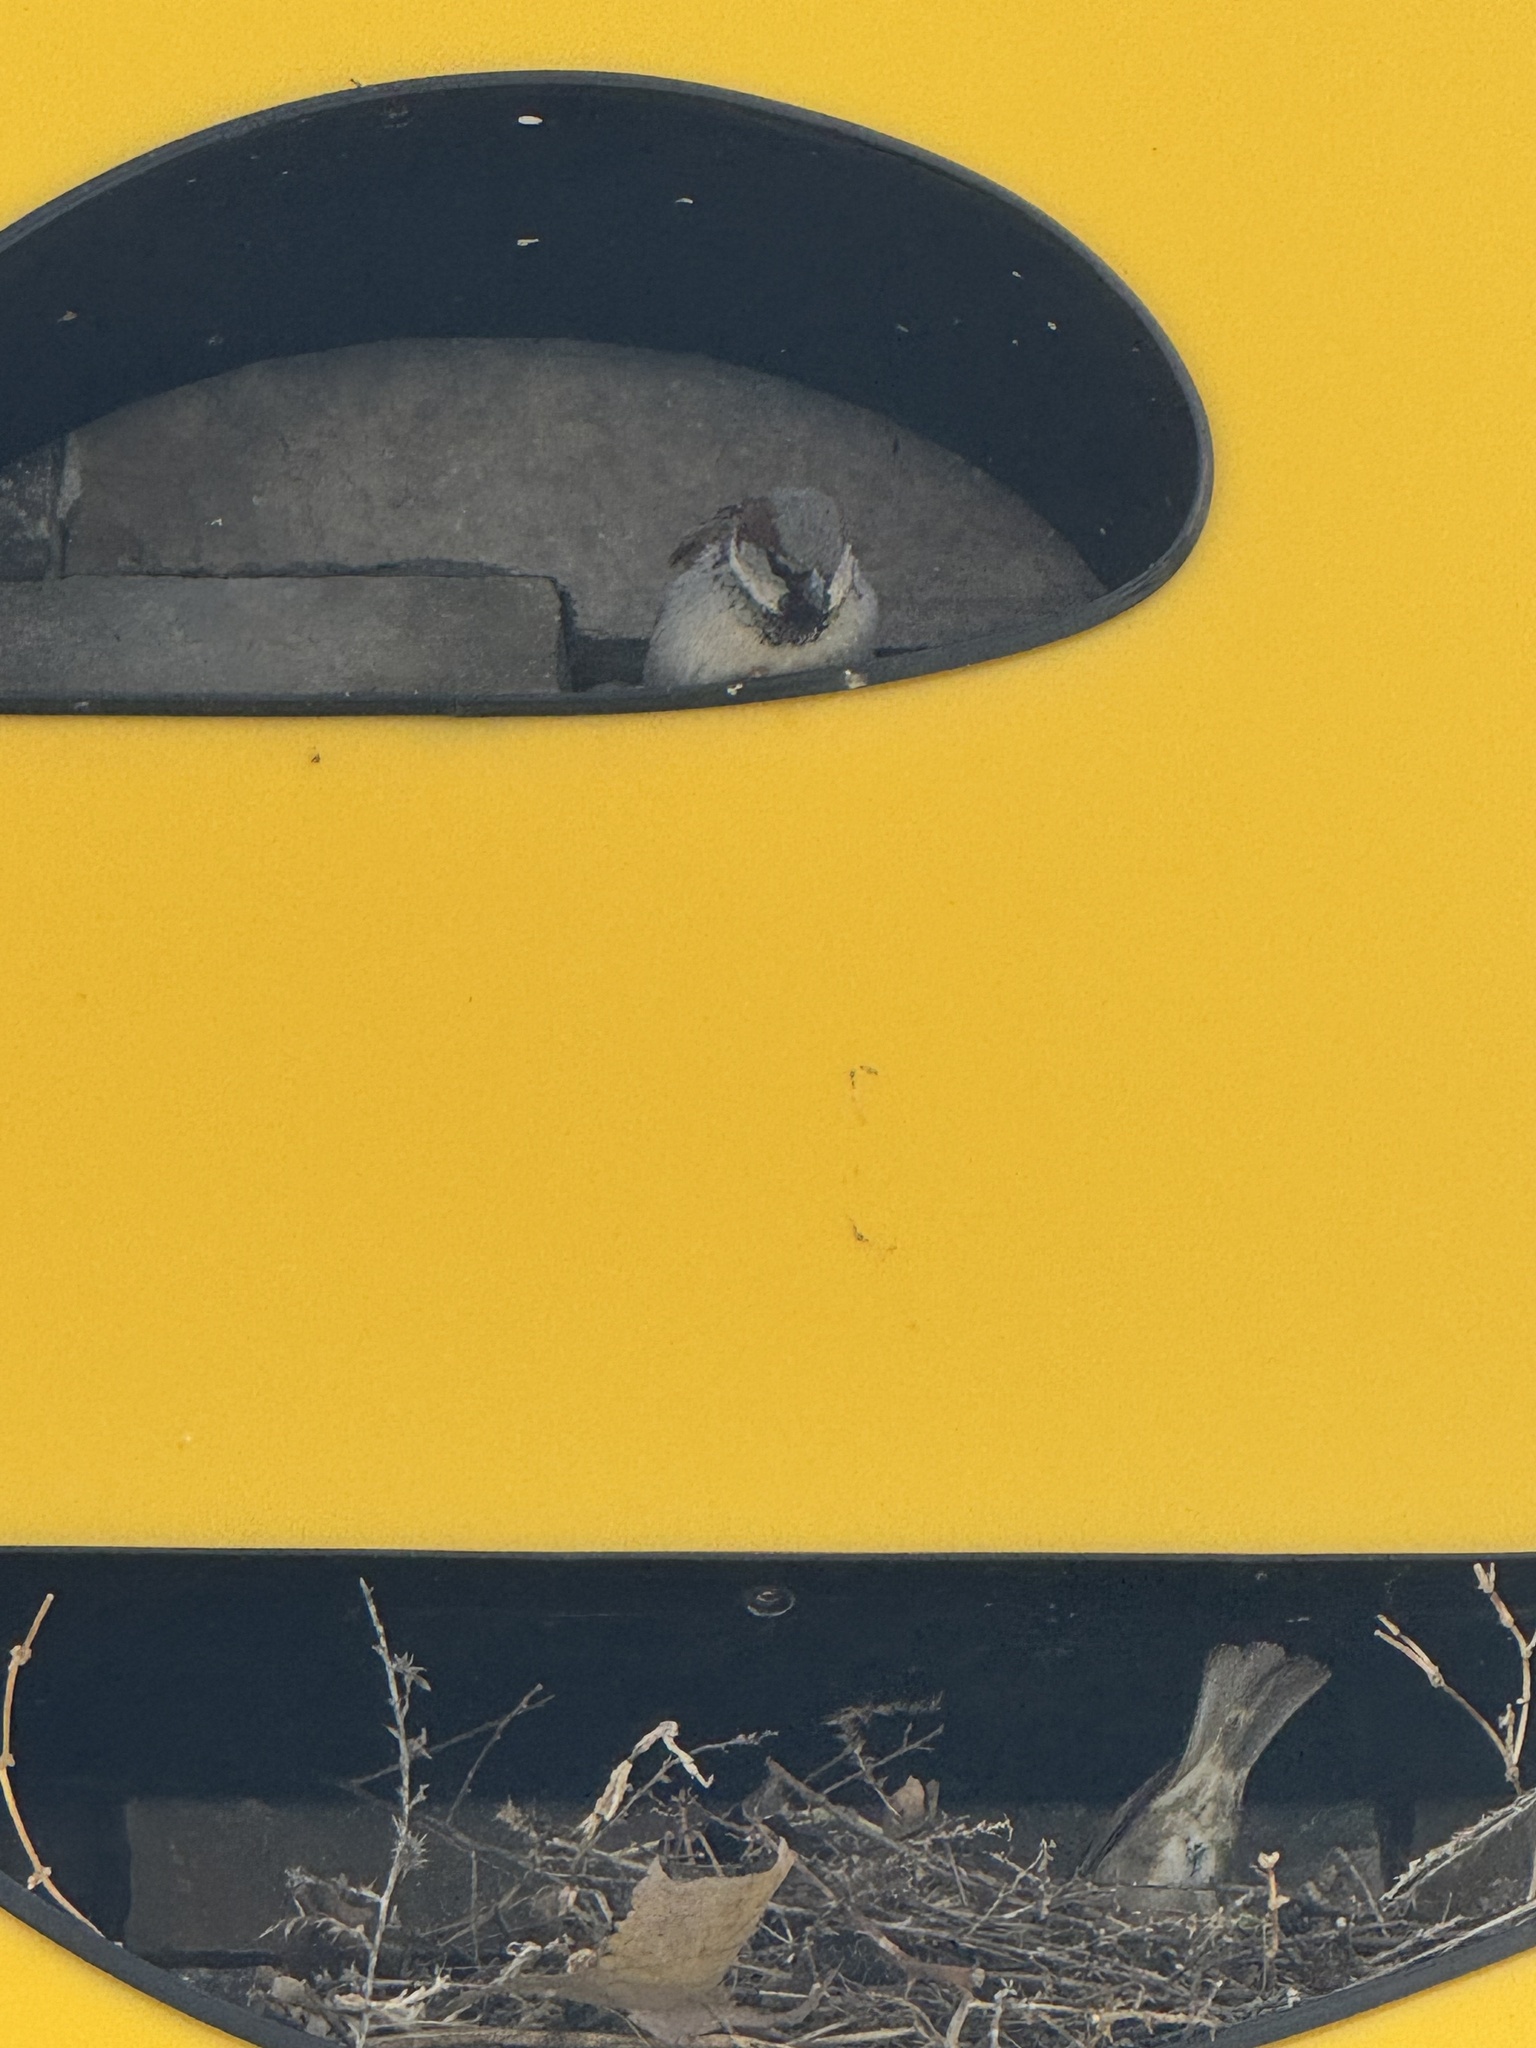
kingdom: Animalia
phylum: Chordata
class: Aves
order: Passeriformes
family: Passeridae
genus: Passer
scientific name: Passer domesticus
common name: House sparrow
